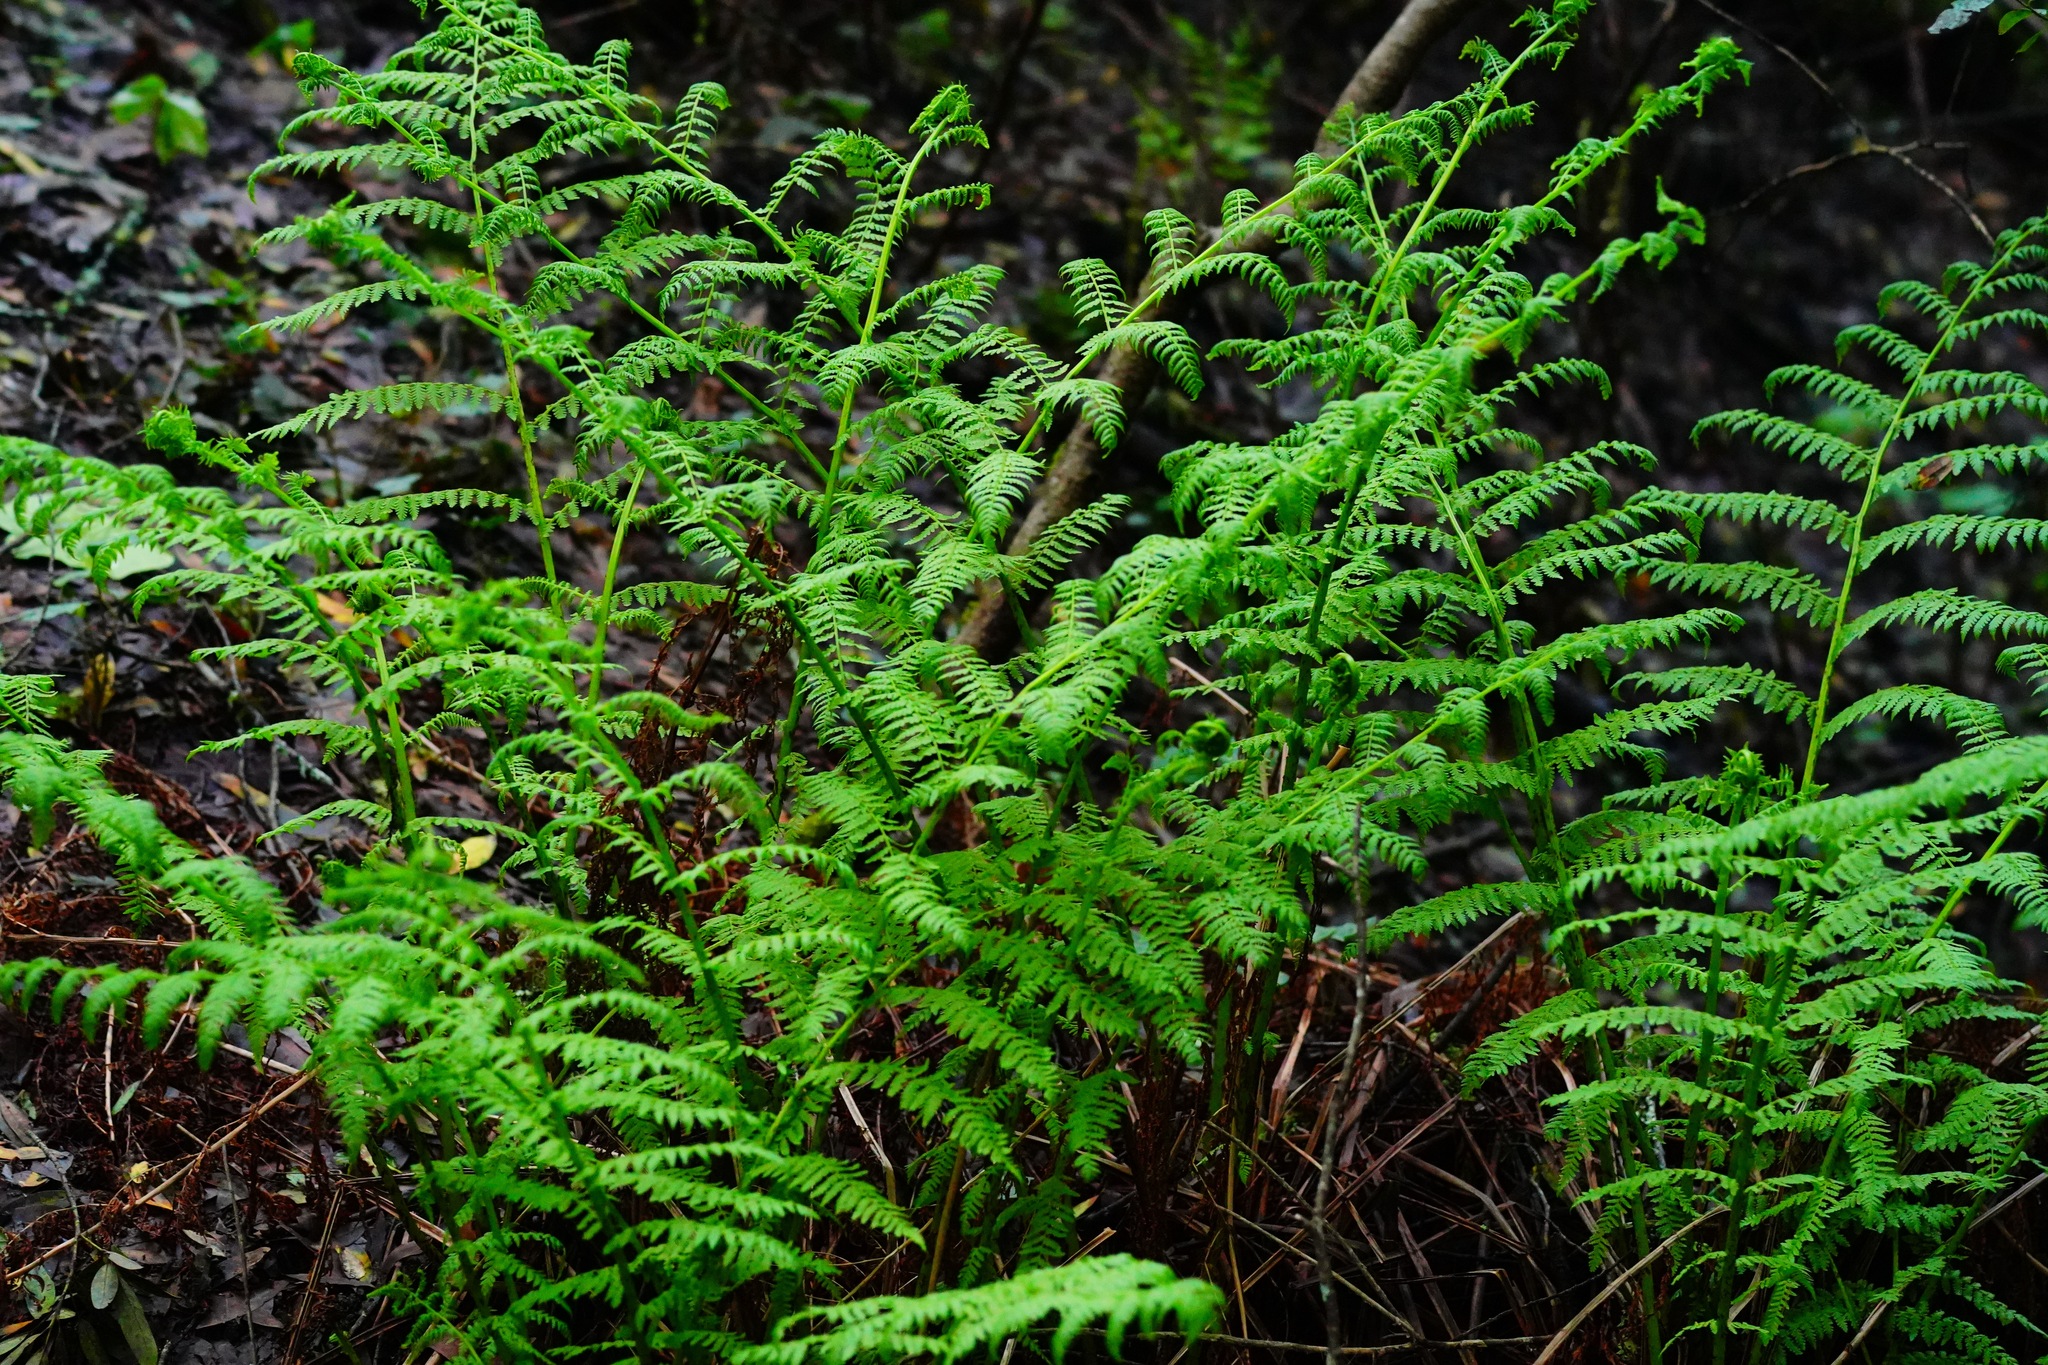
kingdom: Plantae
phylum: Tracheophyta
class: Polypodiopsida
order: Polypodiales
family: Athyriaceae
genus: Athyrium
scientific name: Athyrium filix-femina
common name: Lady fern
